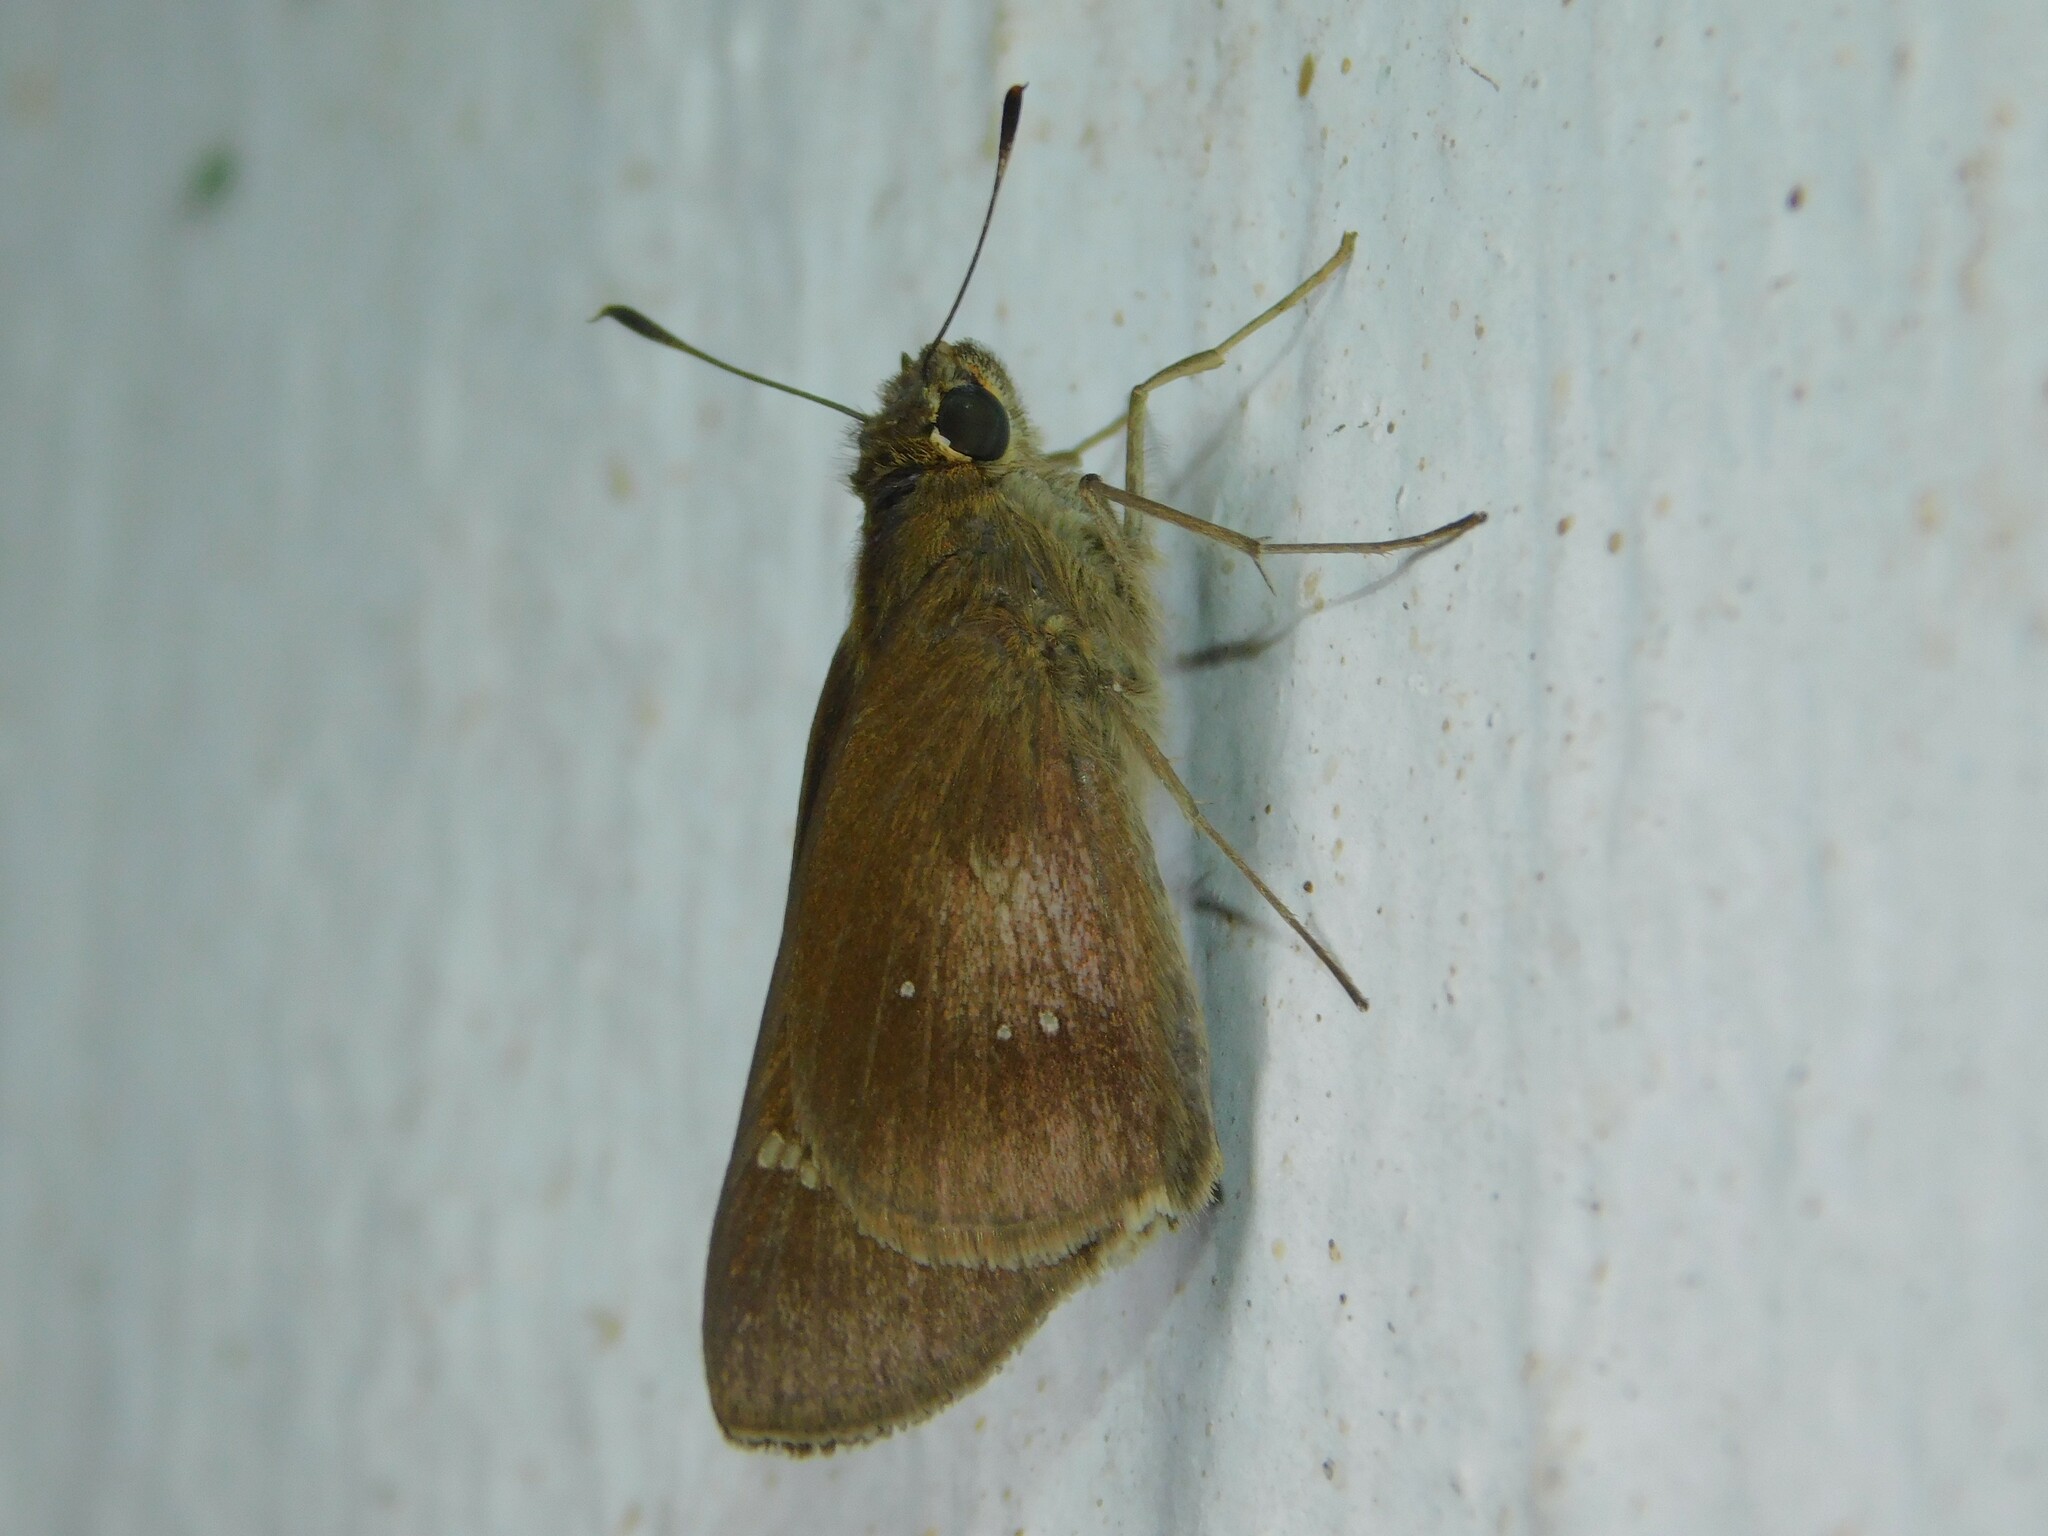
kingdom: Animalia
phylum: Arthropoda
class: Insecta
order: Lepidoptera
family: Hesperiidae
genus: Baoris
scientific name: Baoris fatuellus
